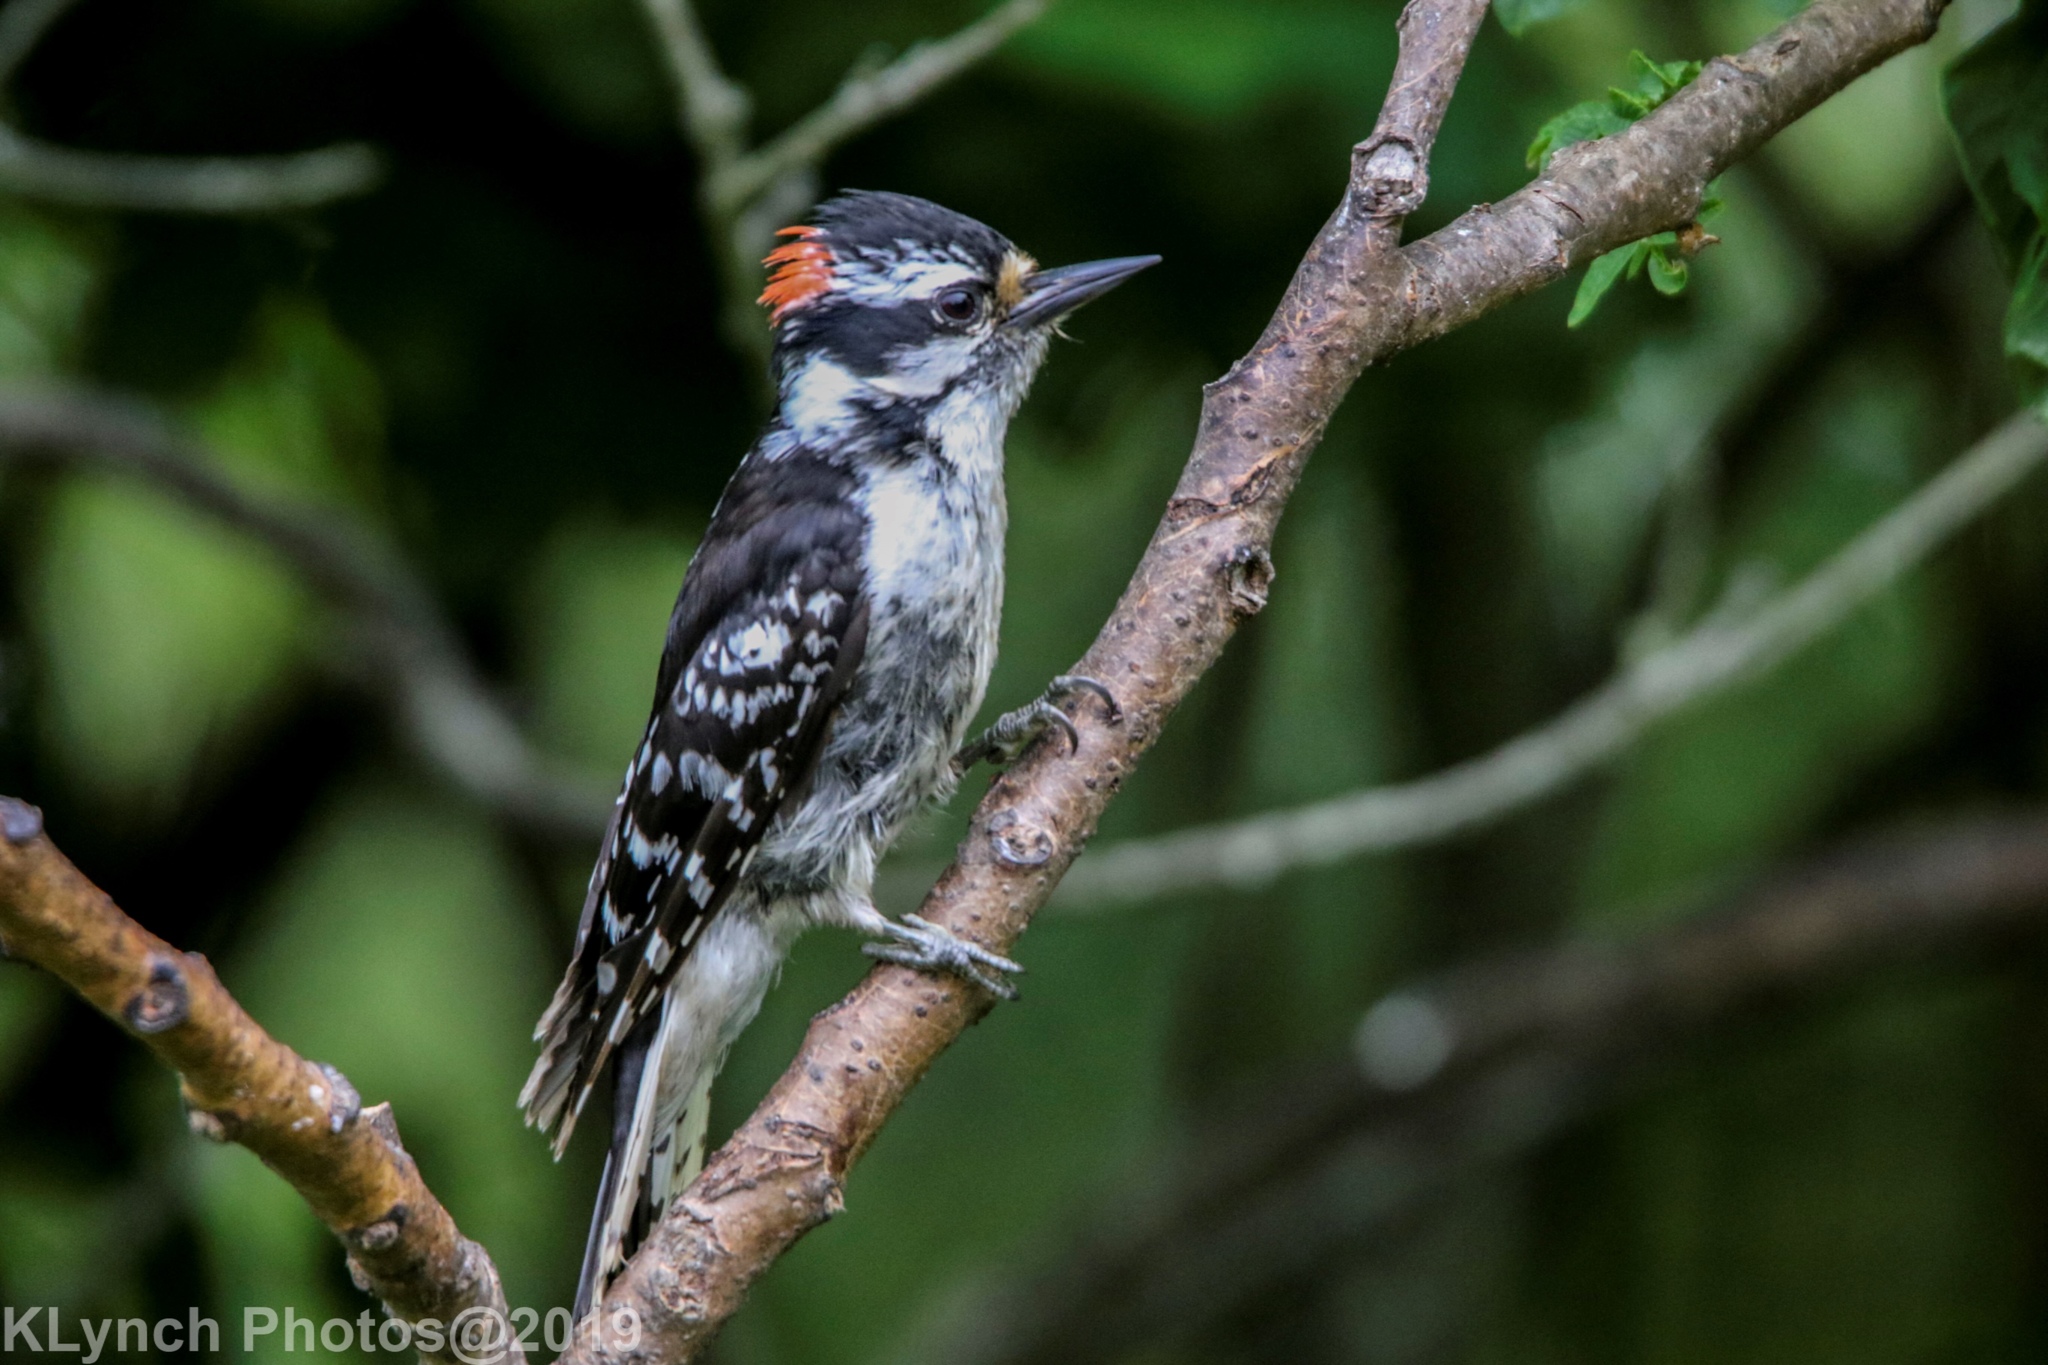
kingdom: Animalia
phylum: Chordata
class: Aves
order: Piciformes
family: Picidae
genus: Dryobates
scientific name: Dryobates pubescens
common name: Downy woodpecker
